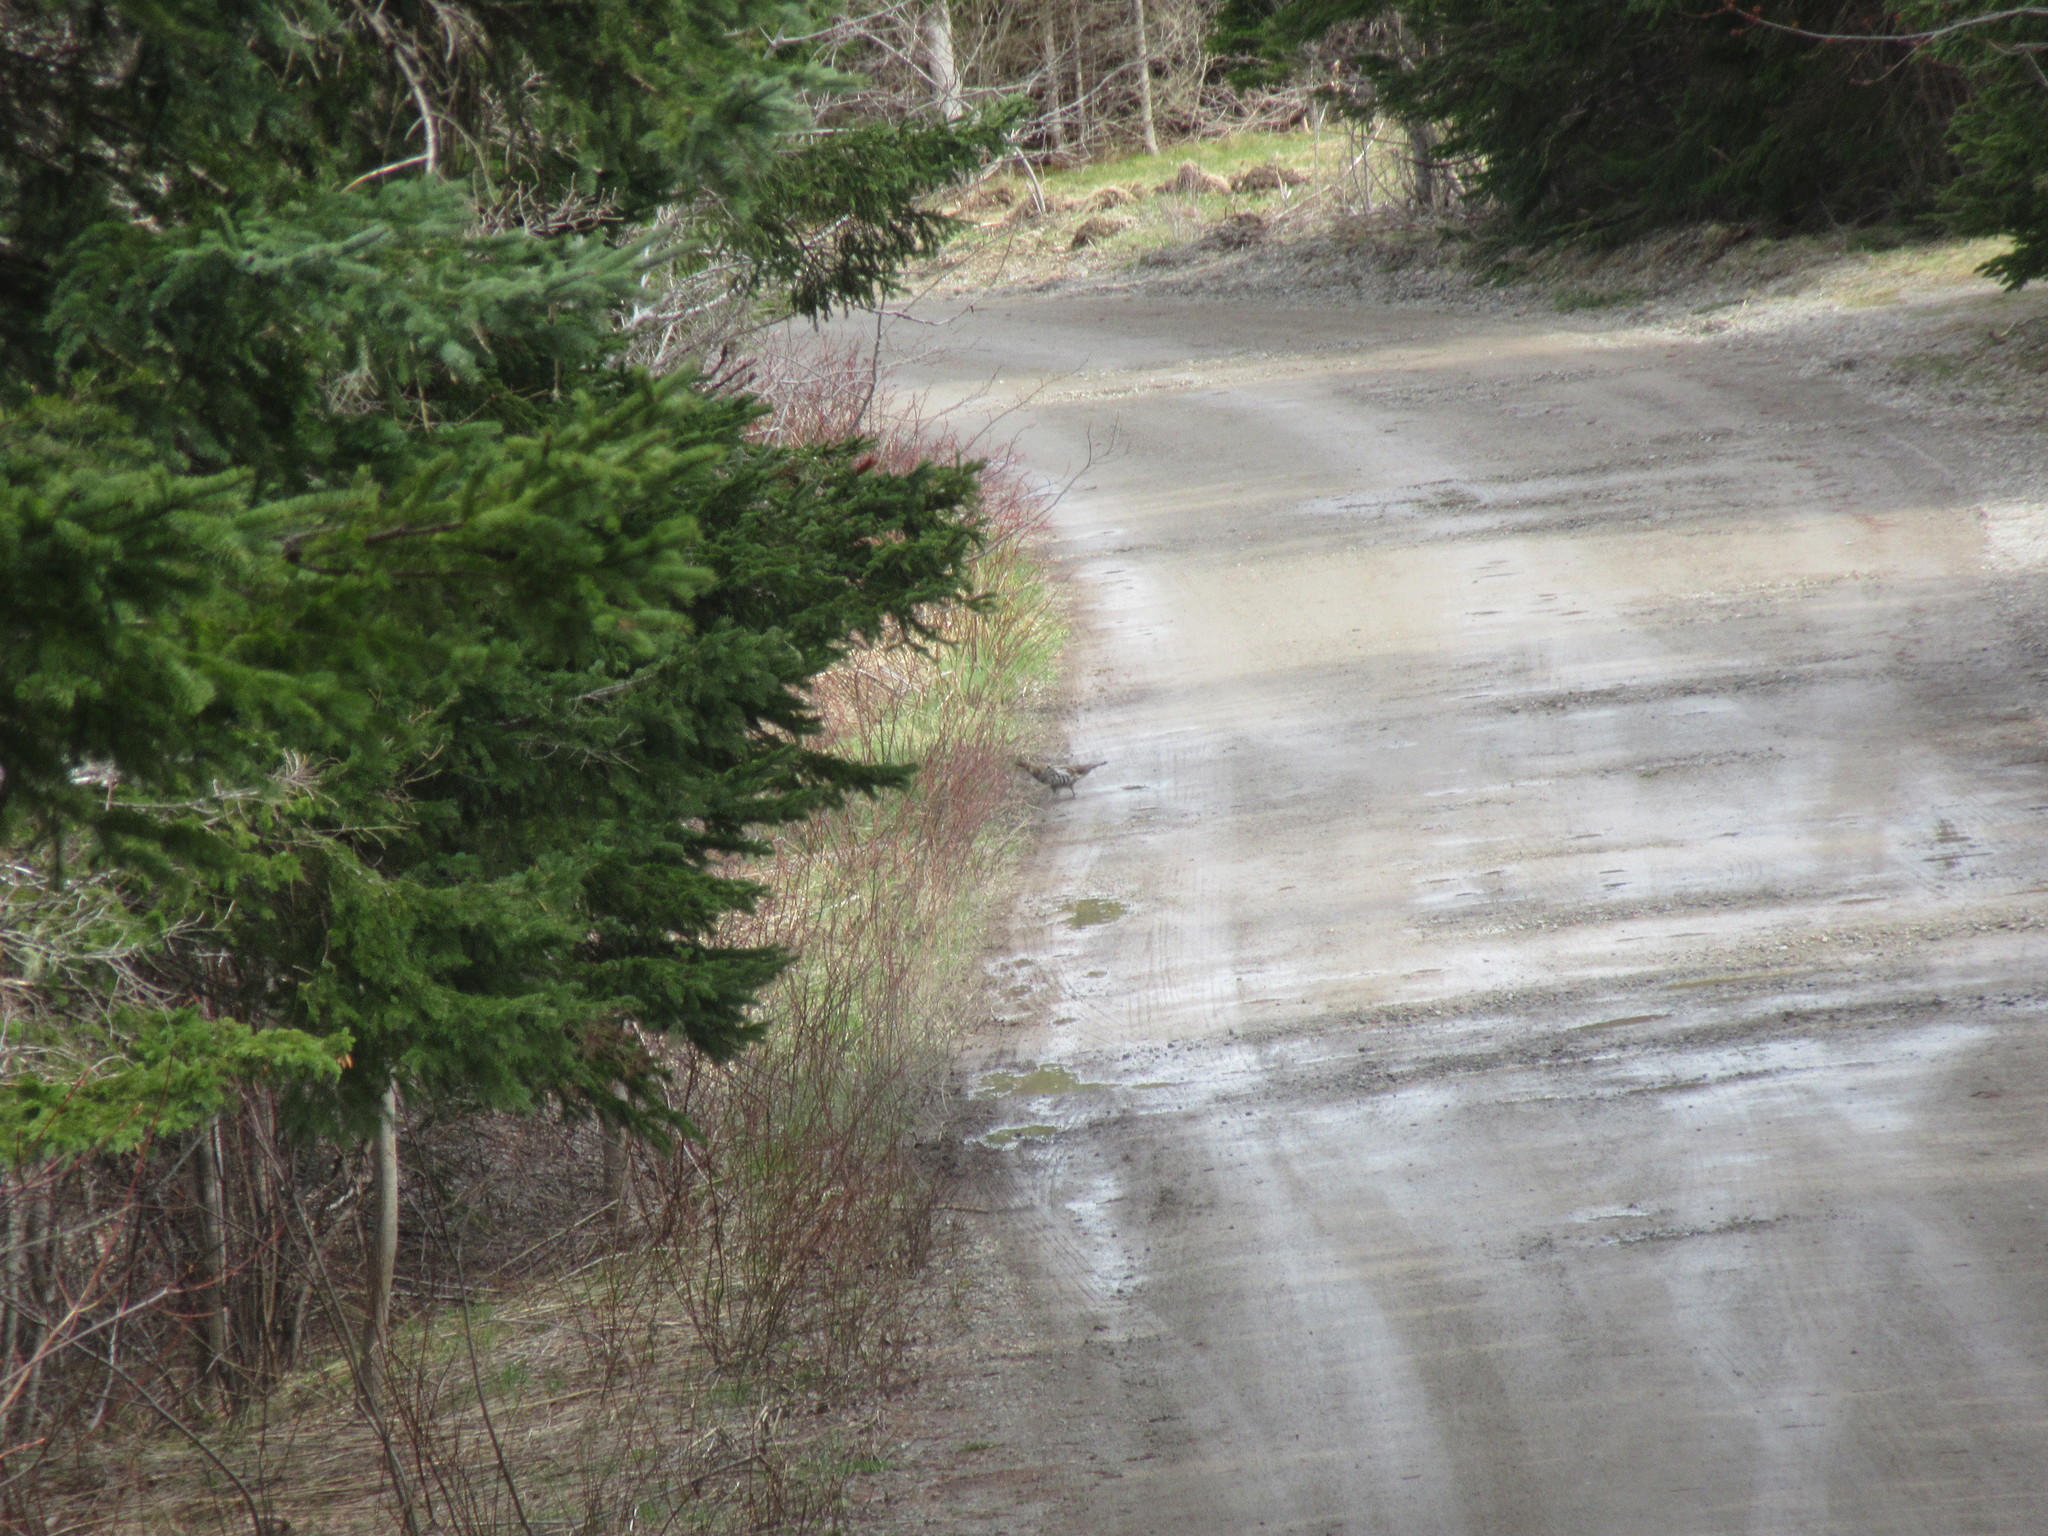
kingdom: Animalia
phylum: Chordata
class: Aves
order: Galliformes
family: Phasianidae
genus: Bonasa
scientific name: Bonasa umbellus
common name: Ruffed grouse
